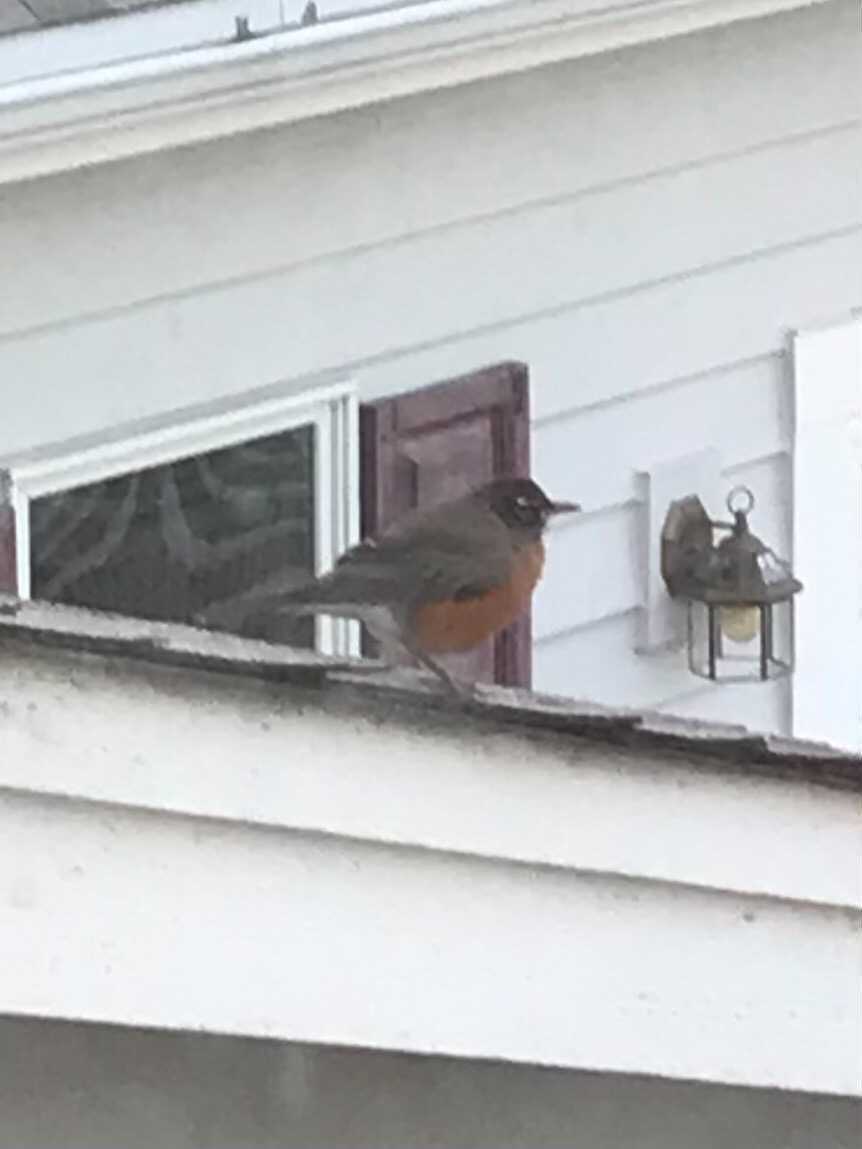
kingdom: Animalia
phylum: Chordata
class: Aves
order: Passeriformes
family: Turdidae
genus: Turdus
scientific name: Turdus migratorius
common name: American robin
